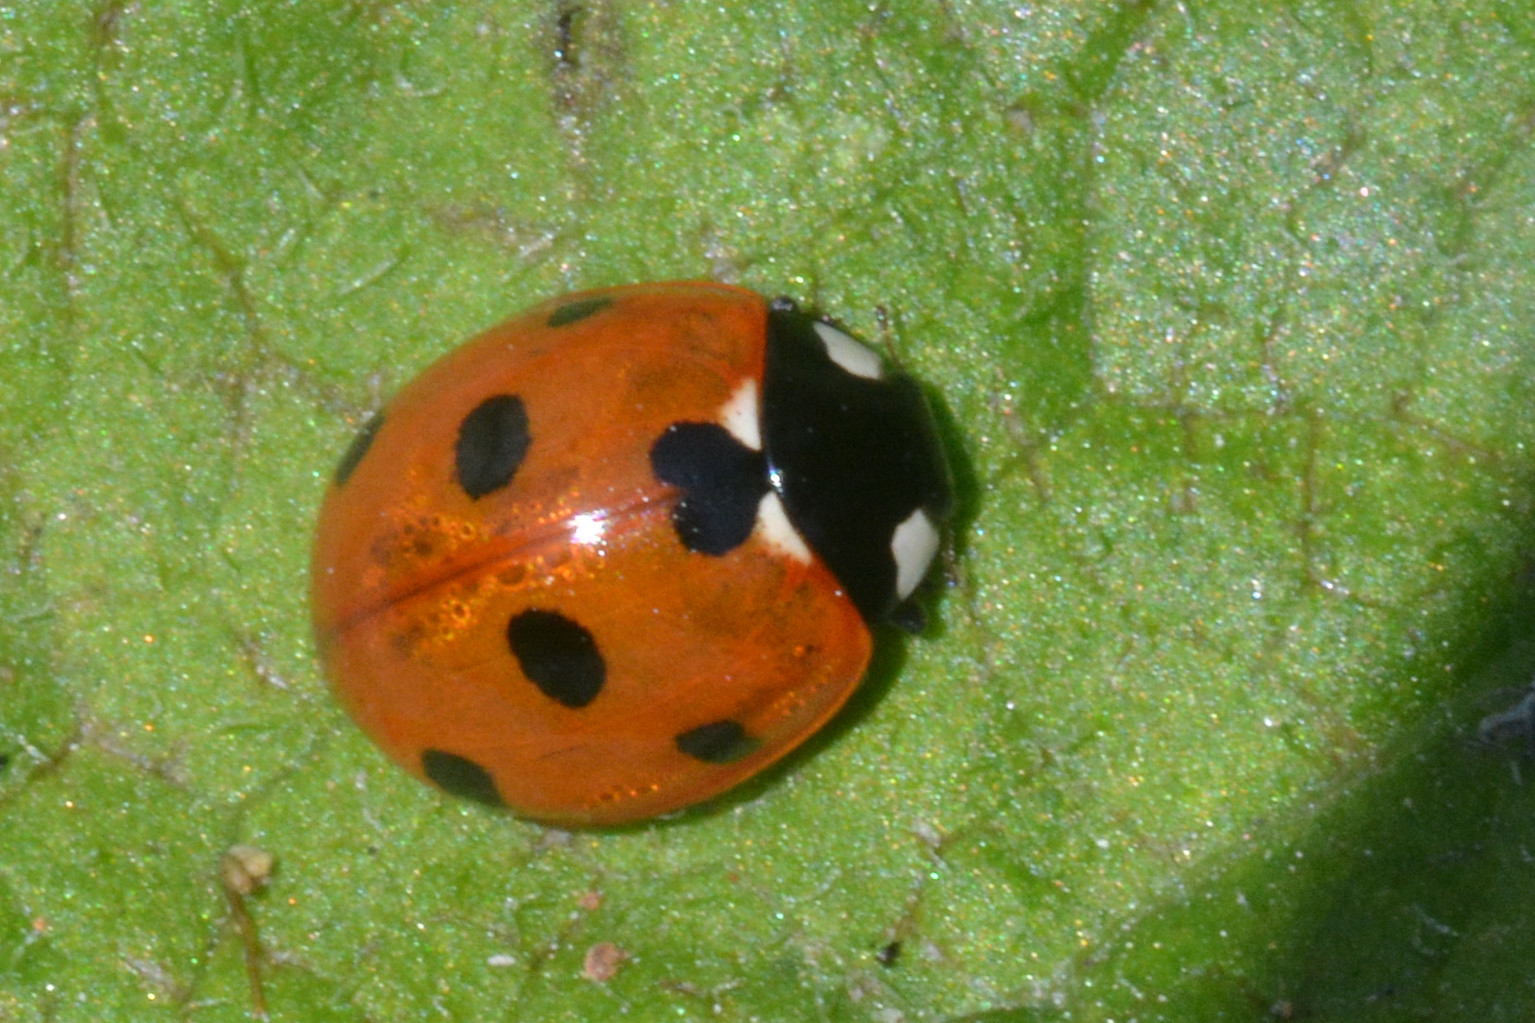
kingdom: Animalia
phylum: Arthropoda
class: Insecta
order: Coleoptera
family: Coccinellidae
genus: Coccinella
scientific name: Coccinella septempunctata
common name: Sevenspotted lady beetle
